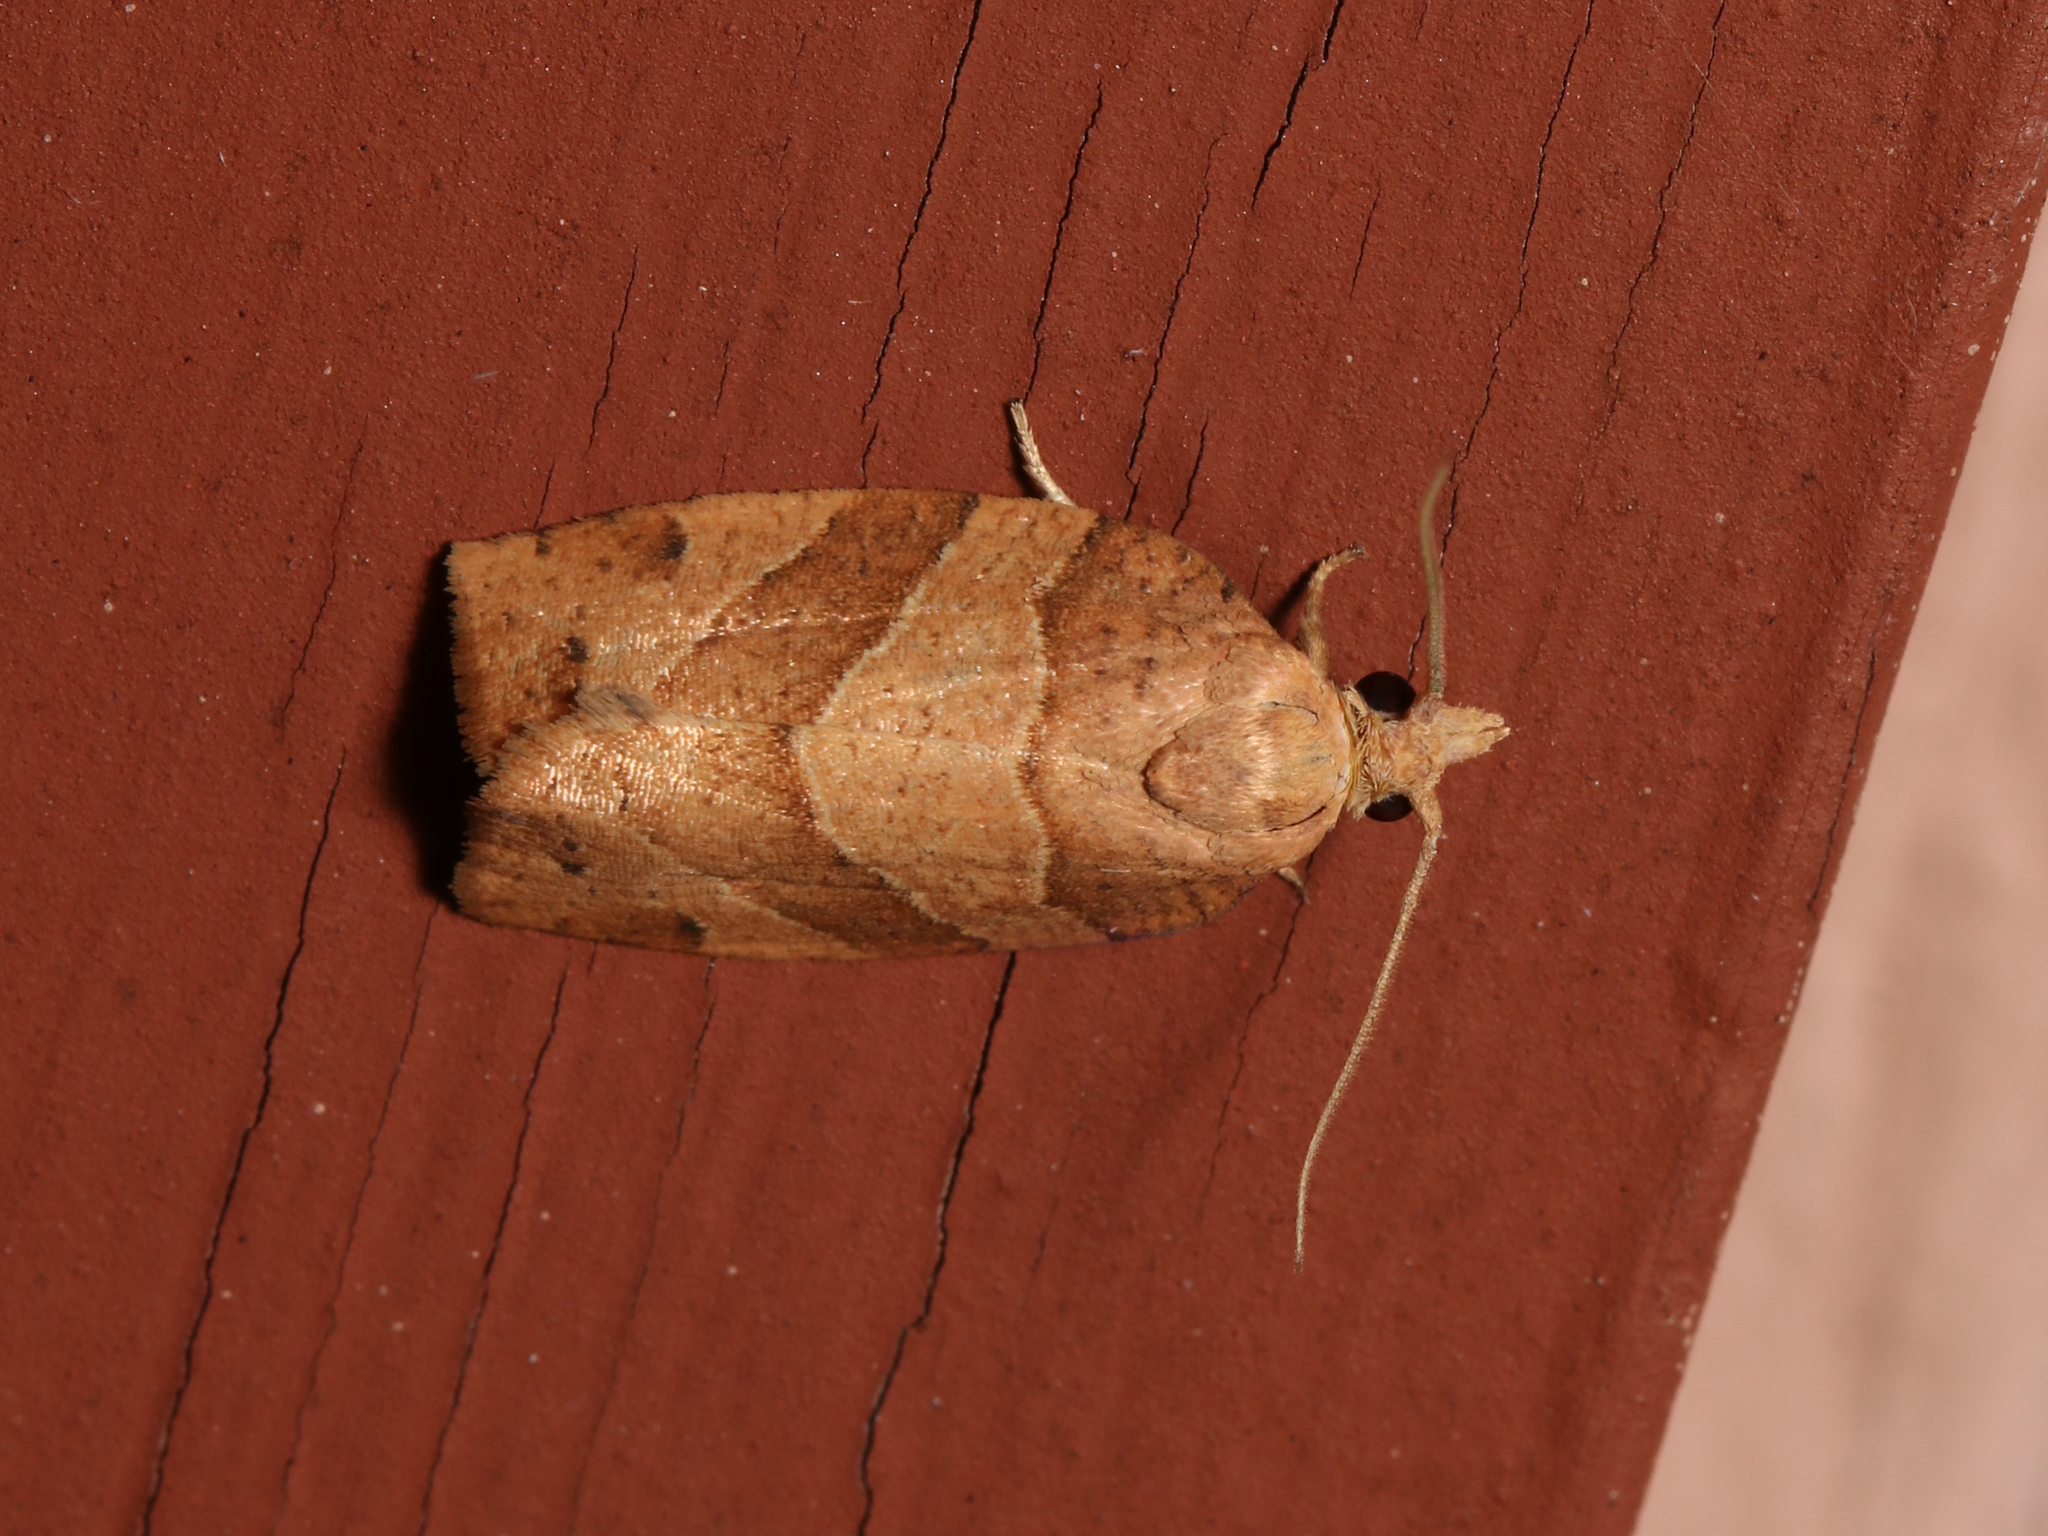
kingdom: Animalia
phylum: Arthropoda
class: Insecta
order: Lepidoptera
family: Tortricidae
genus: Pandemis
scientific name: Pandemis lamprosana
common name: Woodgrain leafroller moth
